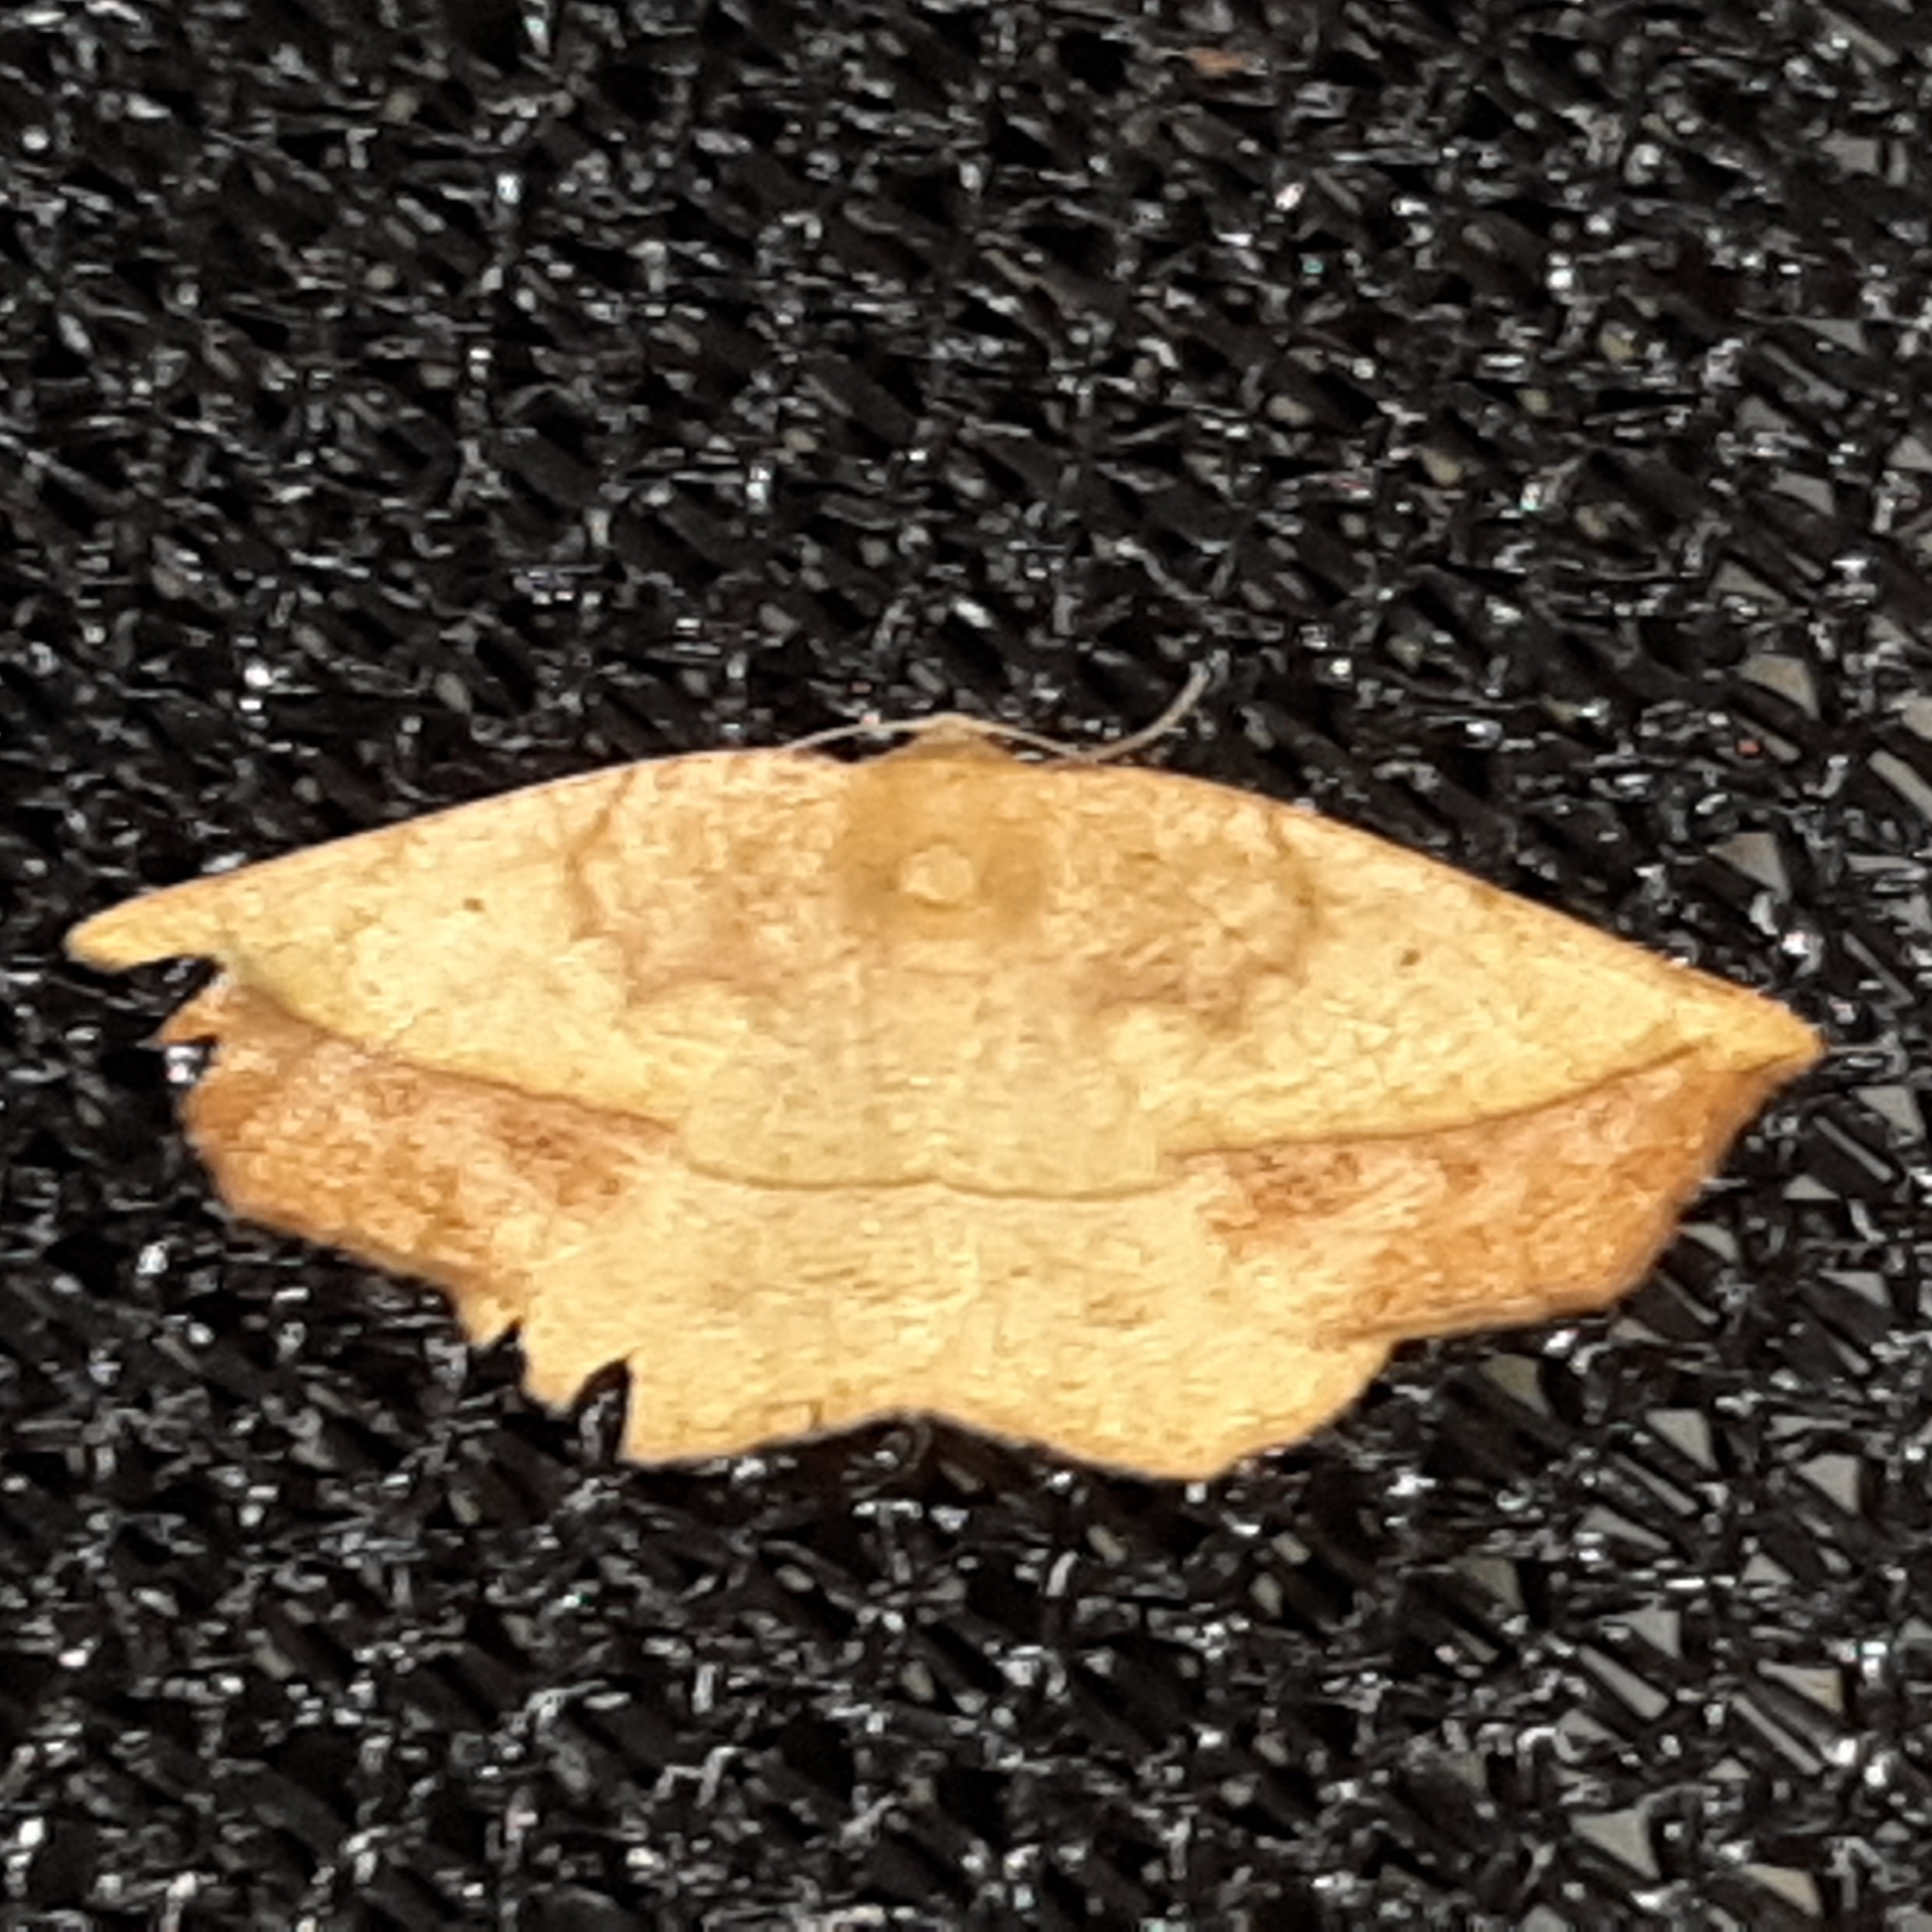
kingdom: Animalia
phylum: Arthropoda
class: Insecta
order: Lepidoptera
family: Geometridae
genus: Eusarca
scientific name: Eusarca asteria
